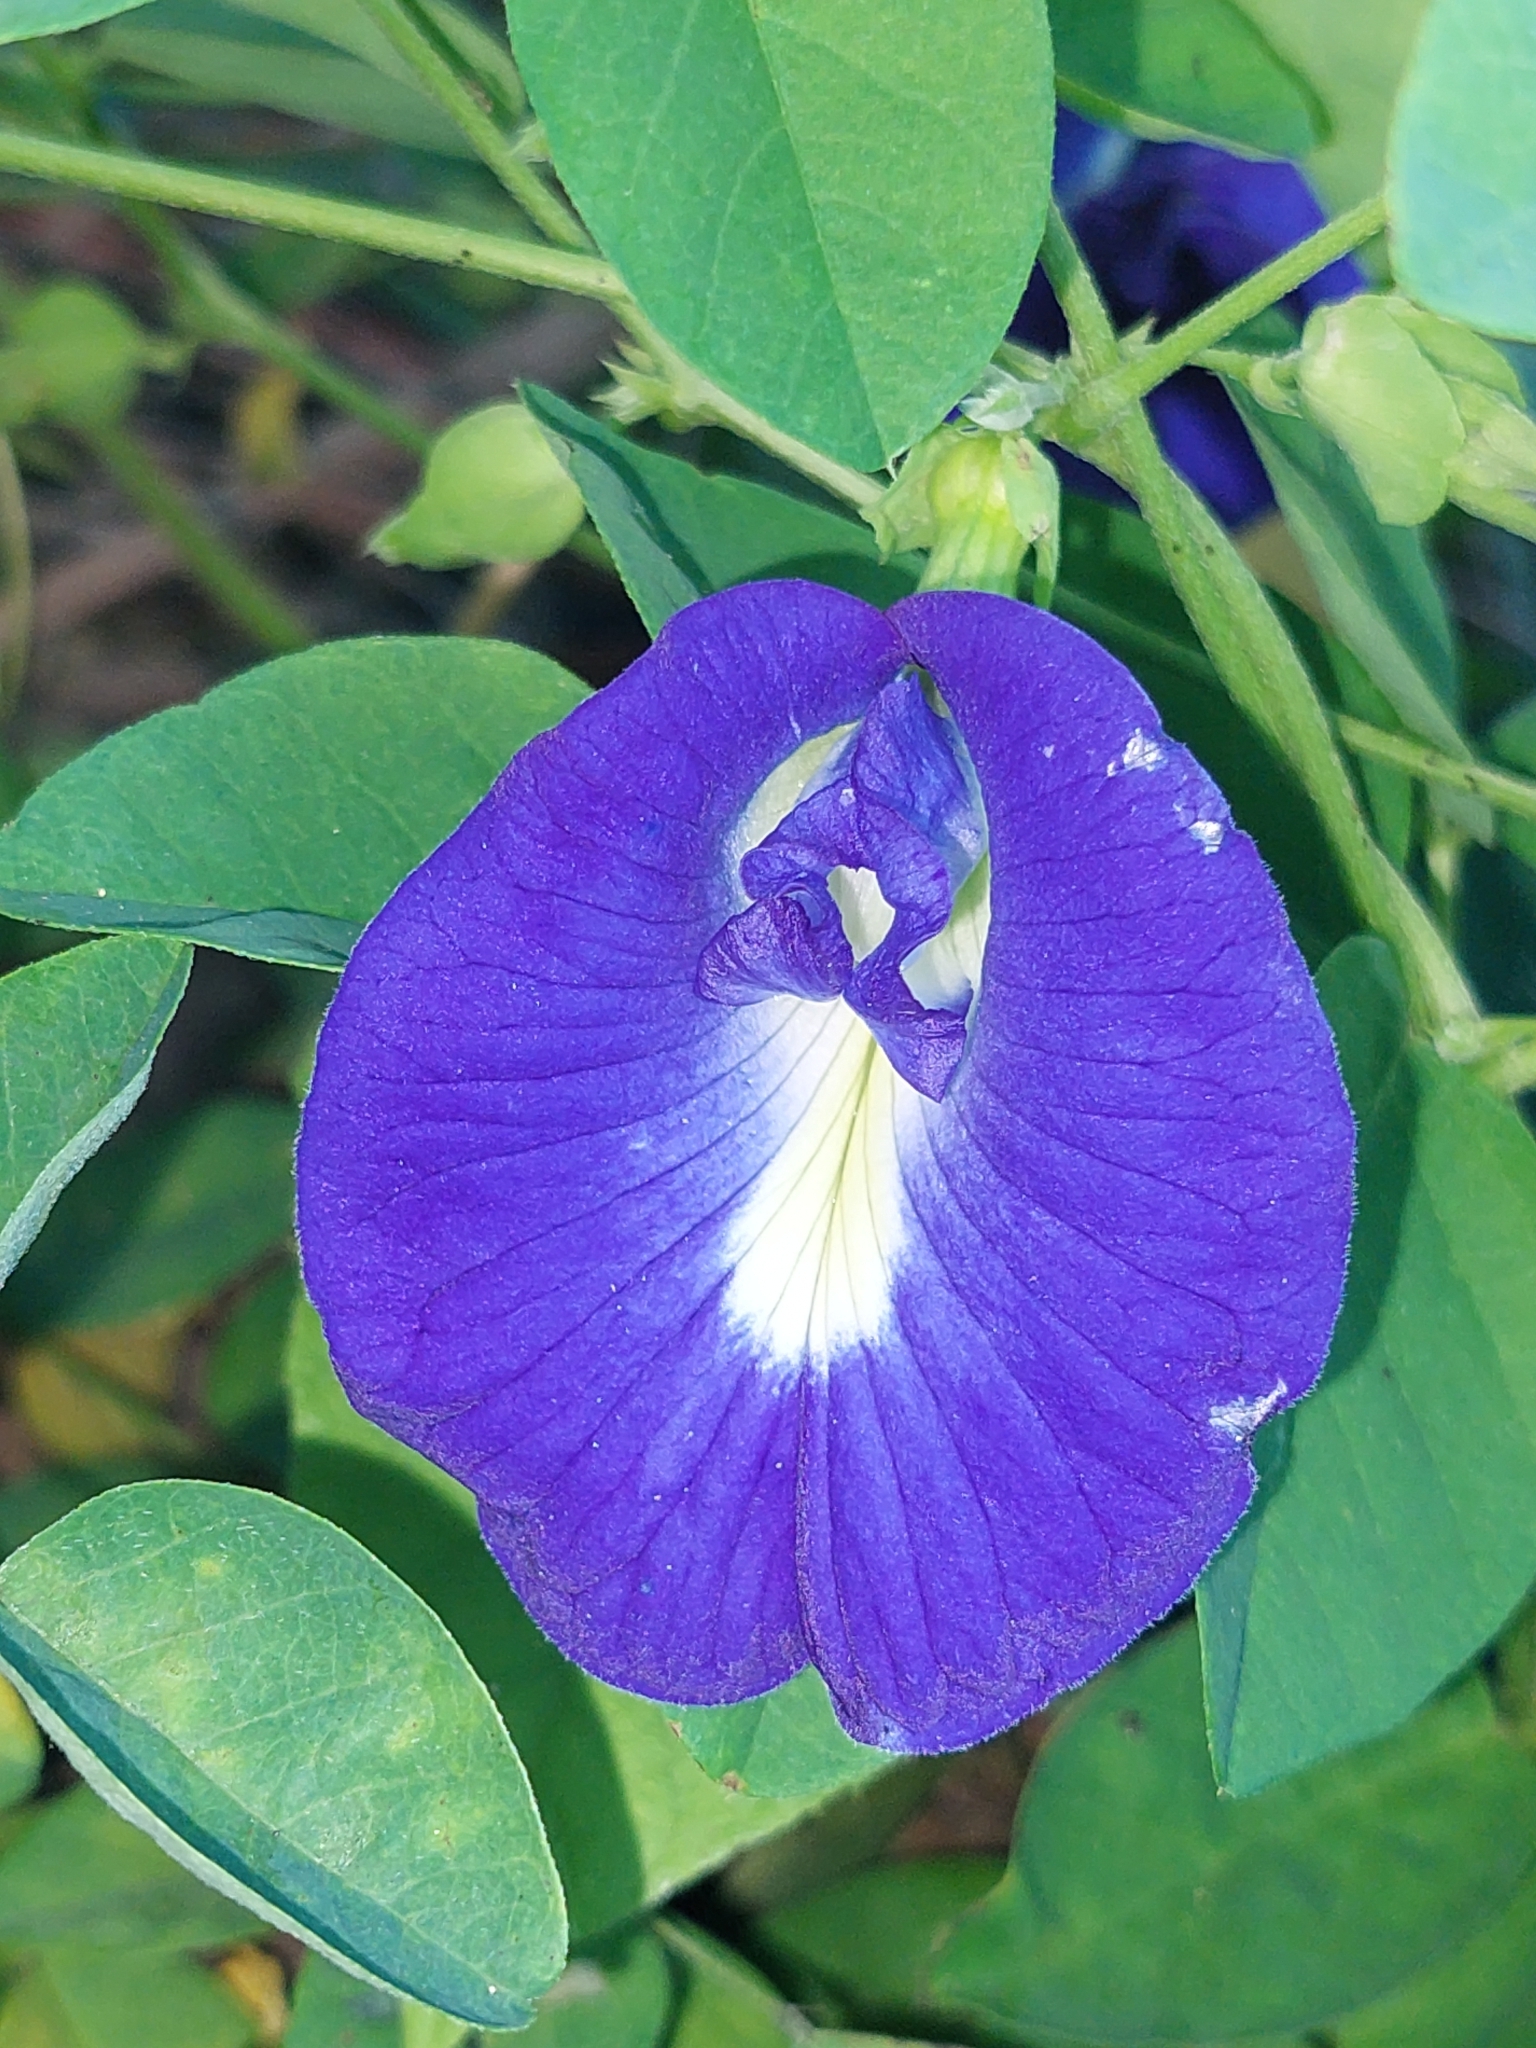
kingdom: Plantae
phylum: Tracheophyta
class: Magnoliopsida
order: Fabales
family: Fabaceae
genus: Clitoria
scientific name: Clitoria ternatea
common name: Asian pigeonwings
